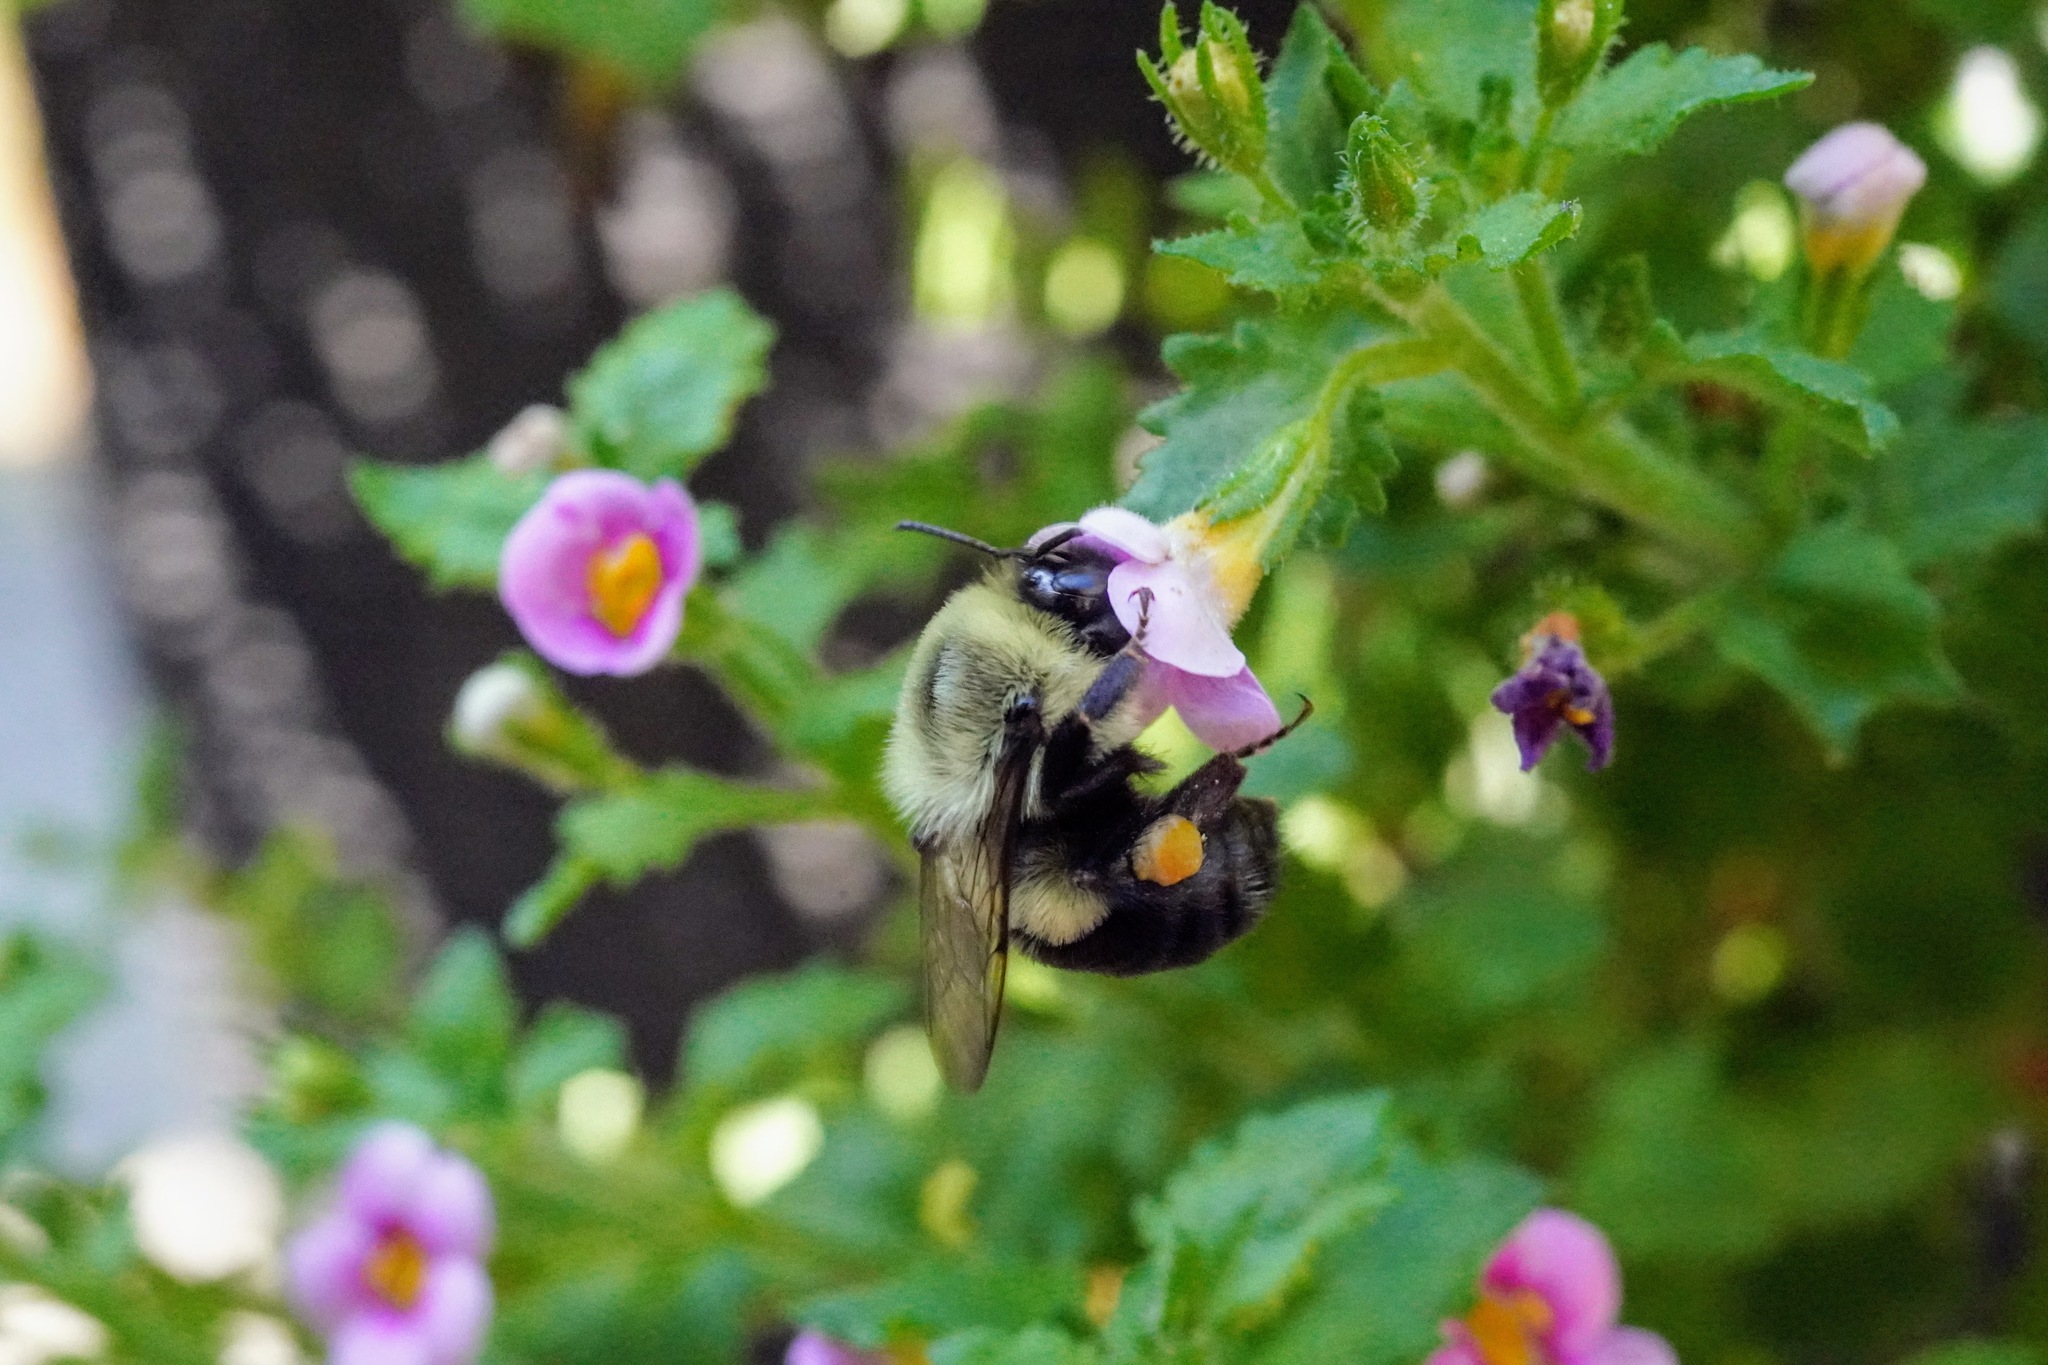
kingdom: Animalia
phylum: Arthropoda
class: Insecta
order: Hymenoptera
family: Apidae
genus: Bombus
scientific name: Bombus impatiens
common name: Common eastern bumble bee
